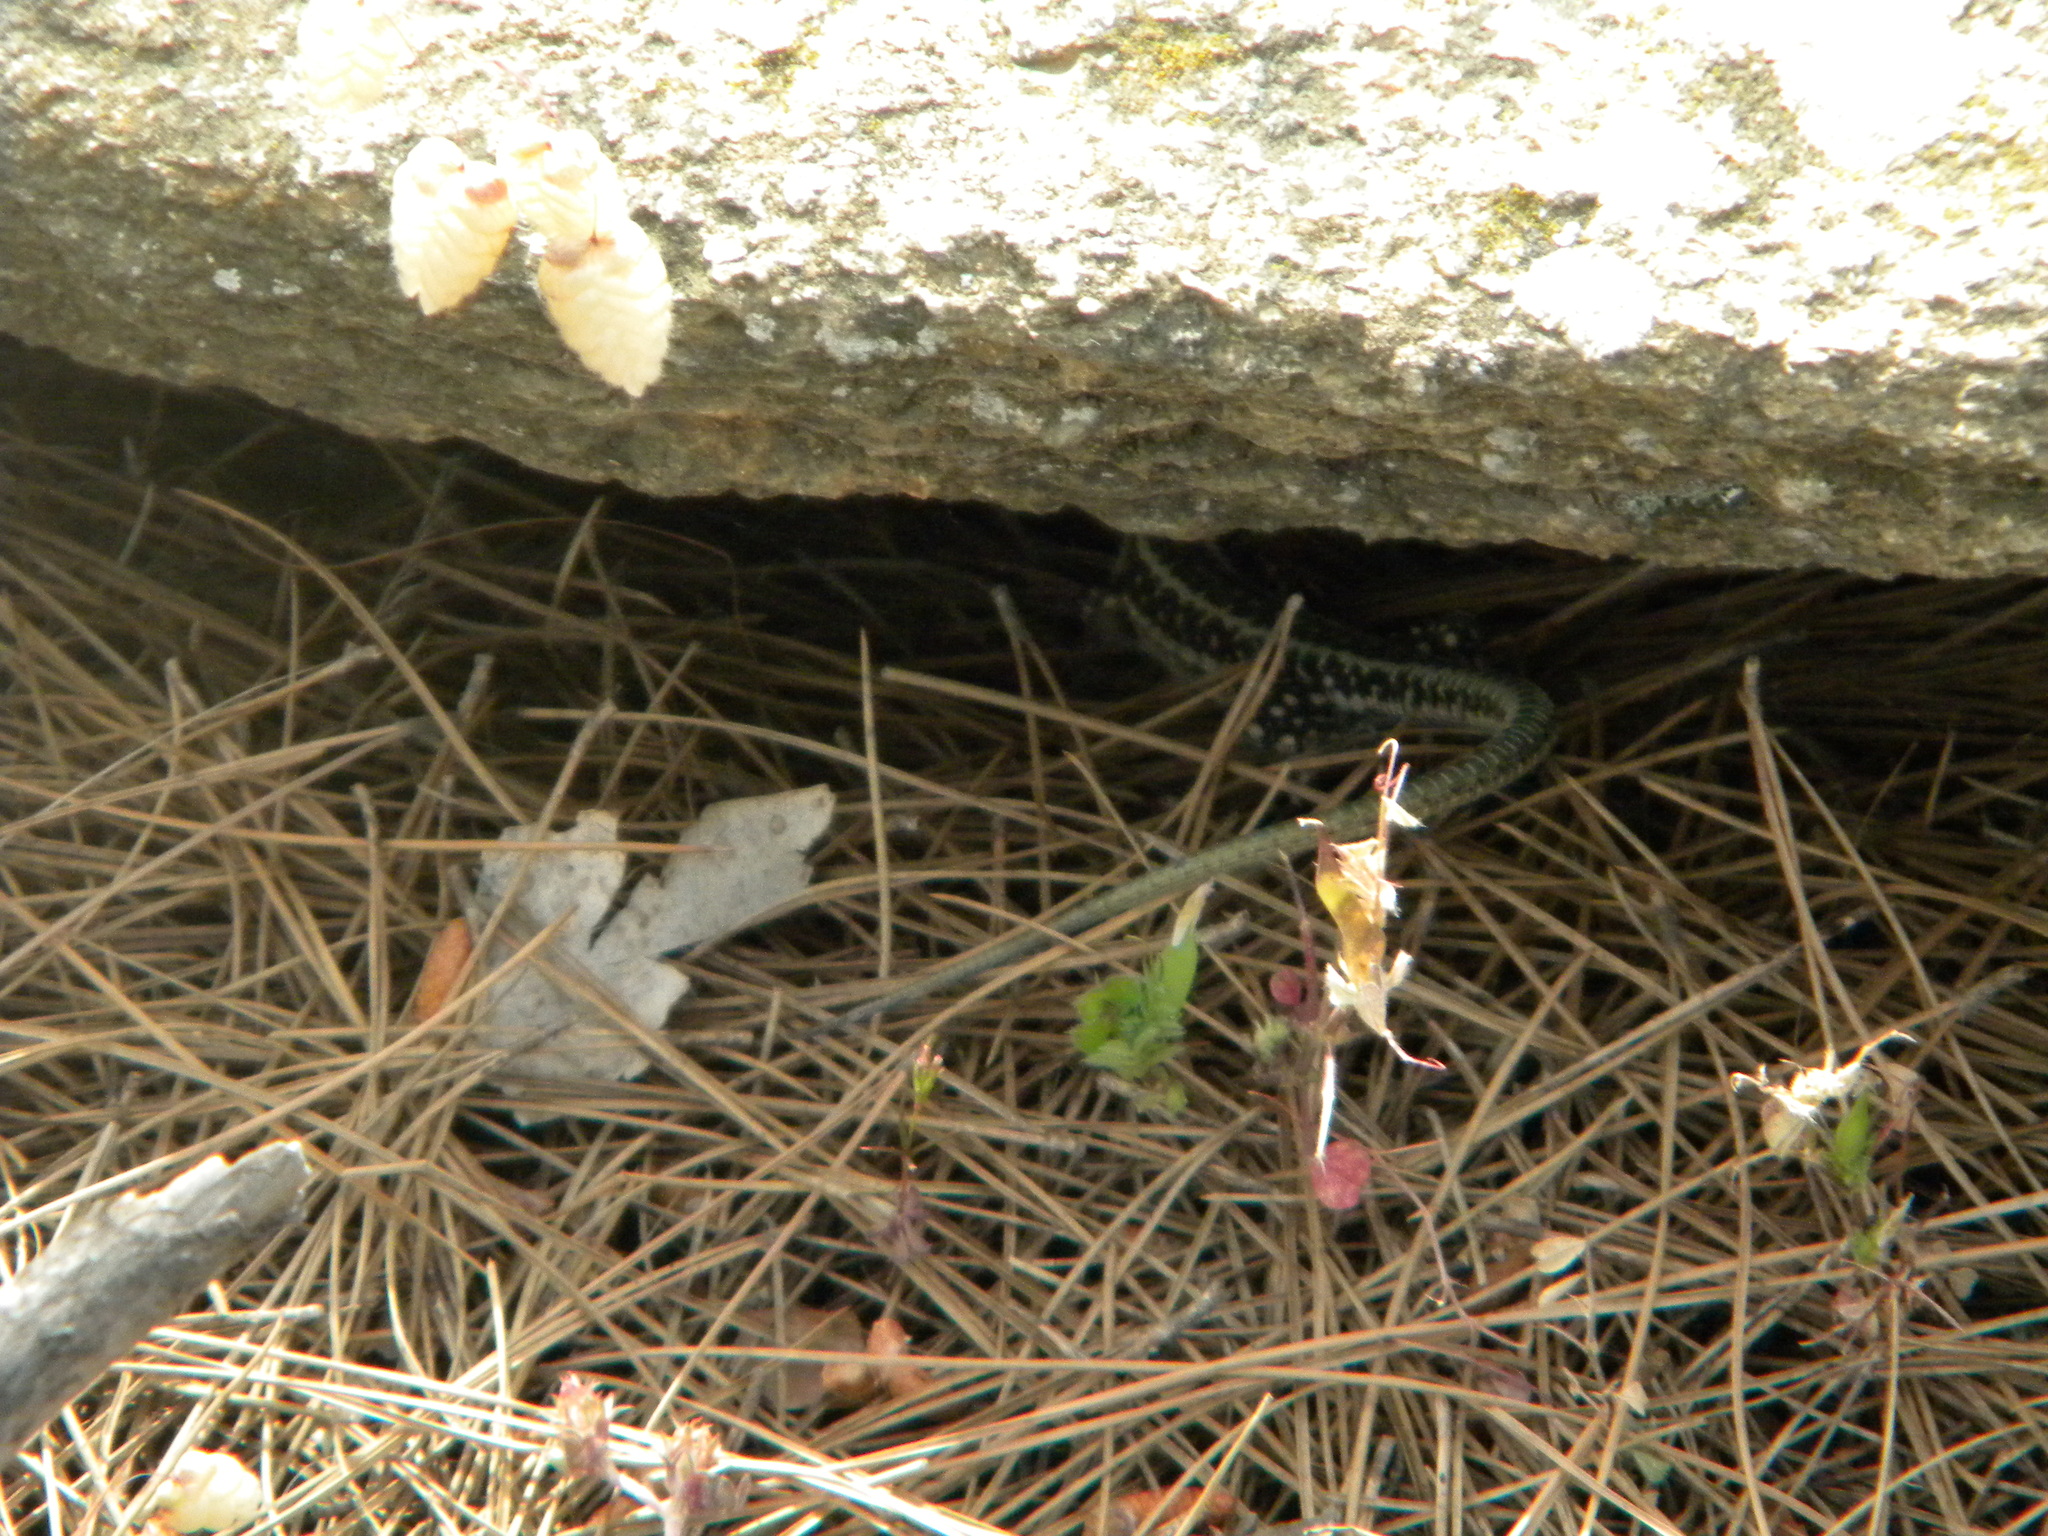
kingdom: Animalia
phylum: Chordata
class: Squamata
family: Lacertidae
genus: Anatololacerta
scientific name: Anatololacerta anatolica
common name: Anatolian rock lizard
